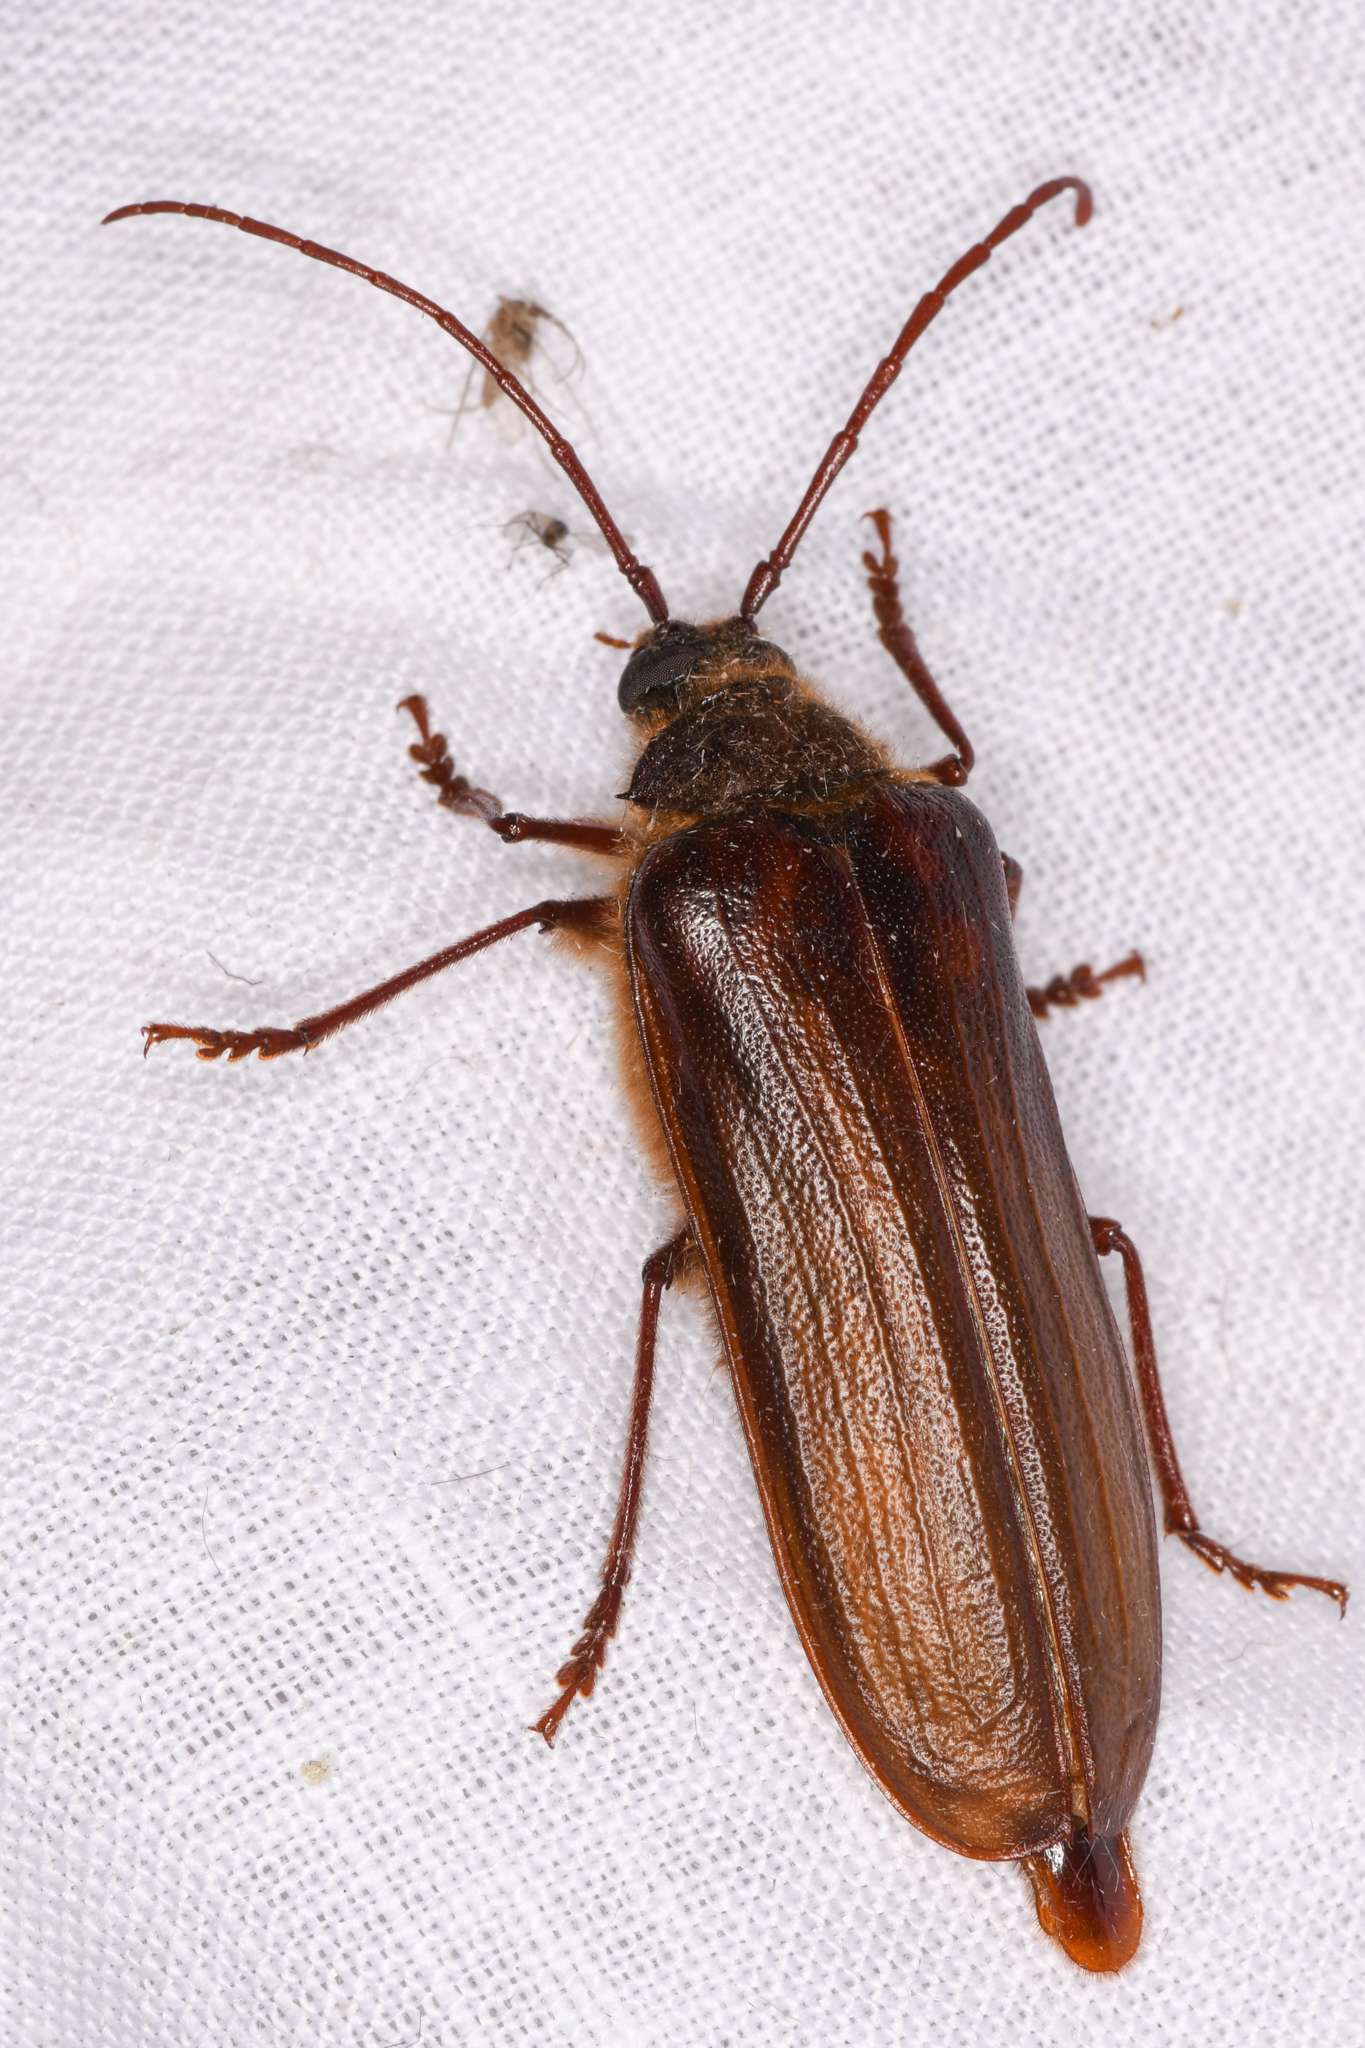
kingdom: Animalia
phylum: Arthropoda
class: Insecta
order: Coleoptera
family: Cerambycidae
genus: Tragosoma
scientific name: Tragosoma harrisii
